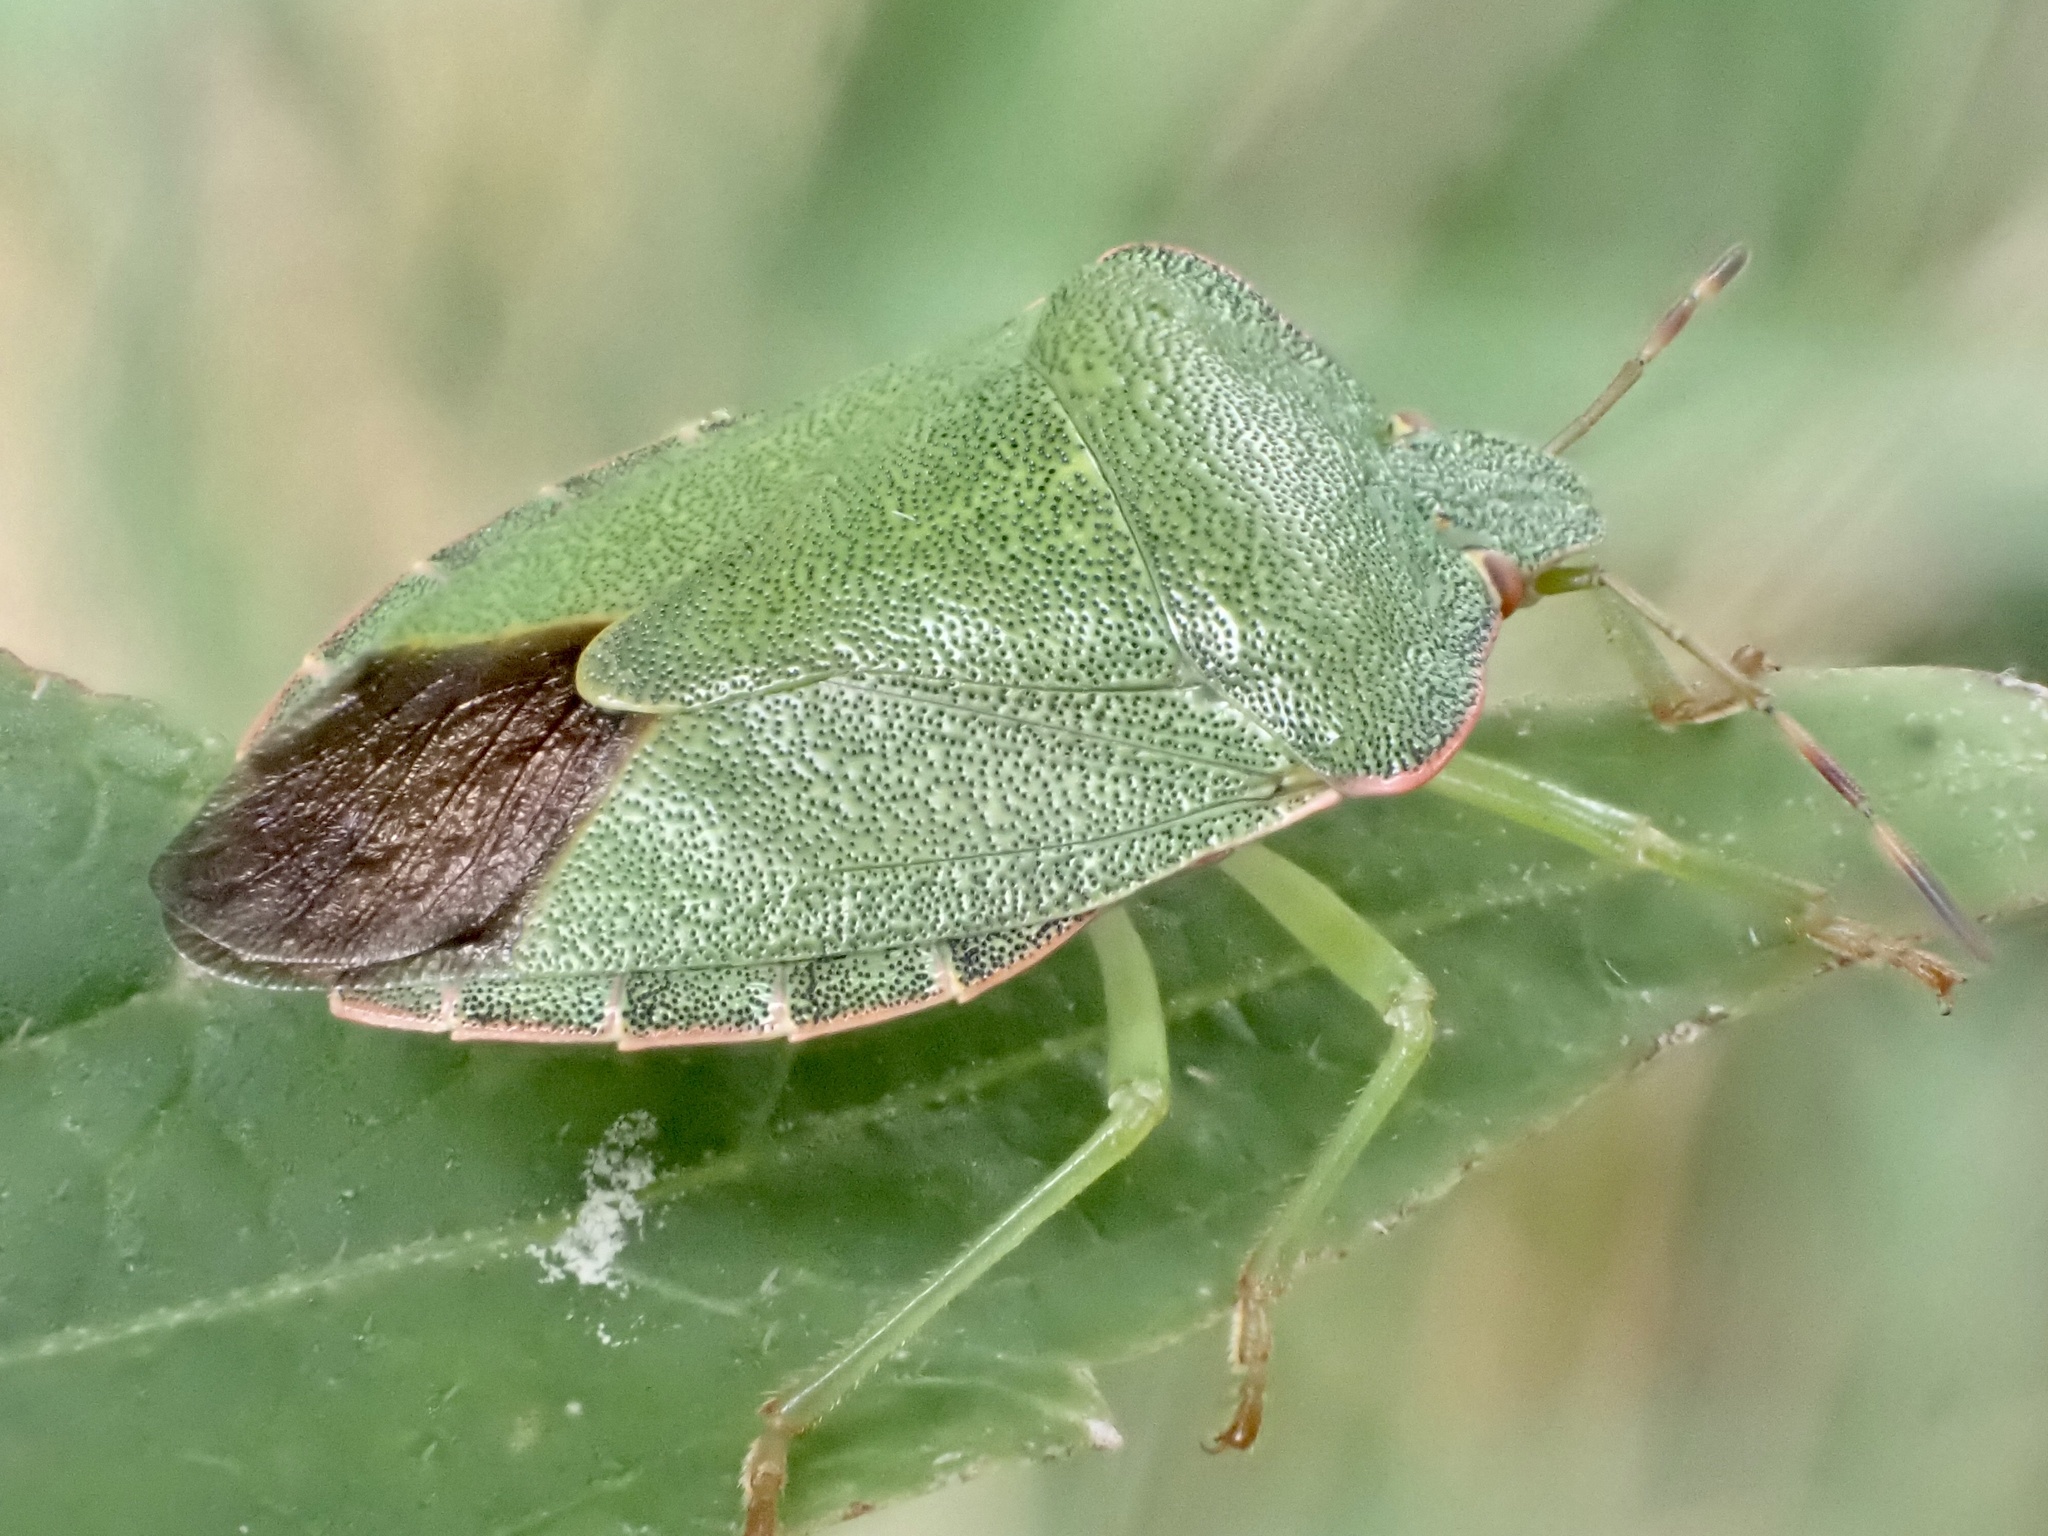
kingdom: Animalia
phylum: Arthropoda
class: Insecta
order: Hemiptera
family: Pentatomidae
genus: Palomena
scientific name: Palomena prasina
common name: Green shieldbug
